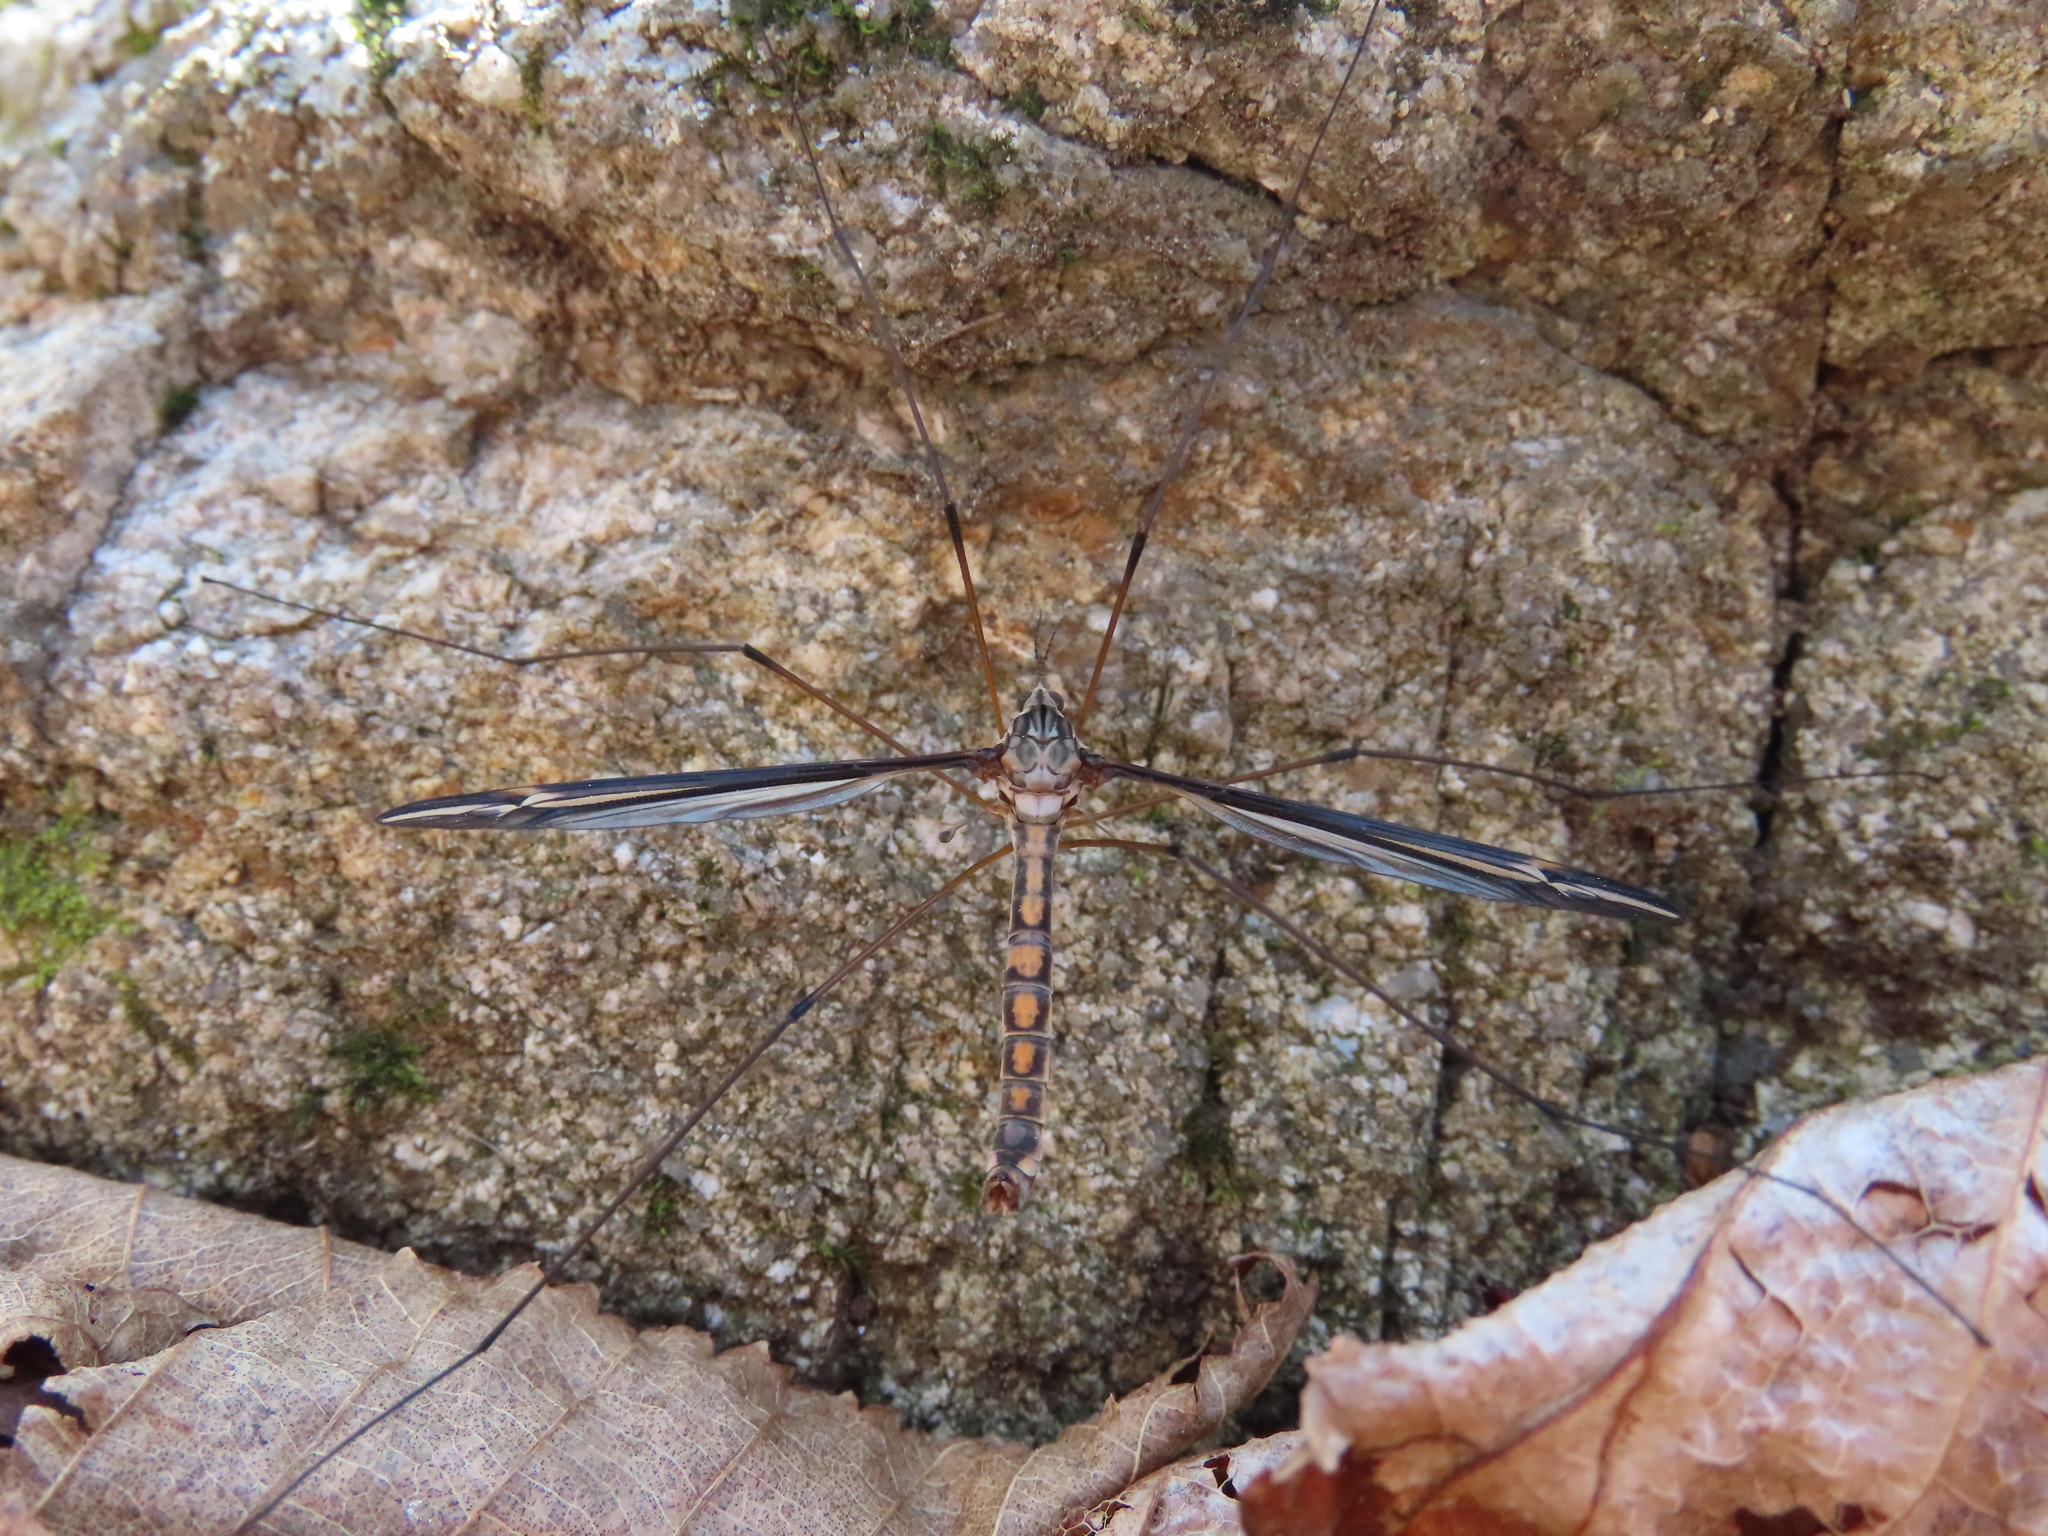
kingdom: Animalia
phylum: Arthropoda
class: Insecta
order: Diptera
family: Tipulidae
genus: Tipula
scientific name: Tipula noveboracensis
